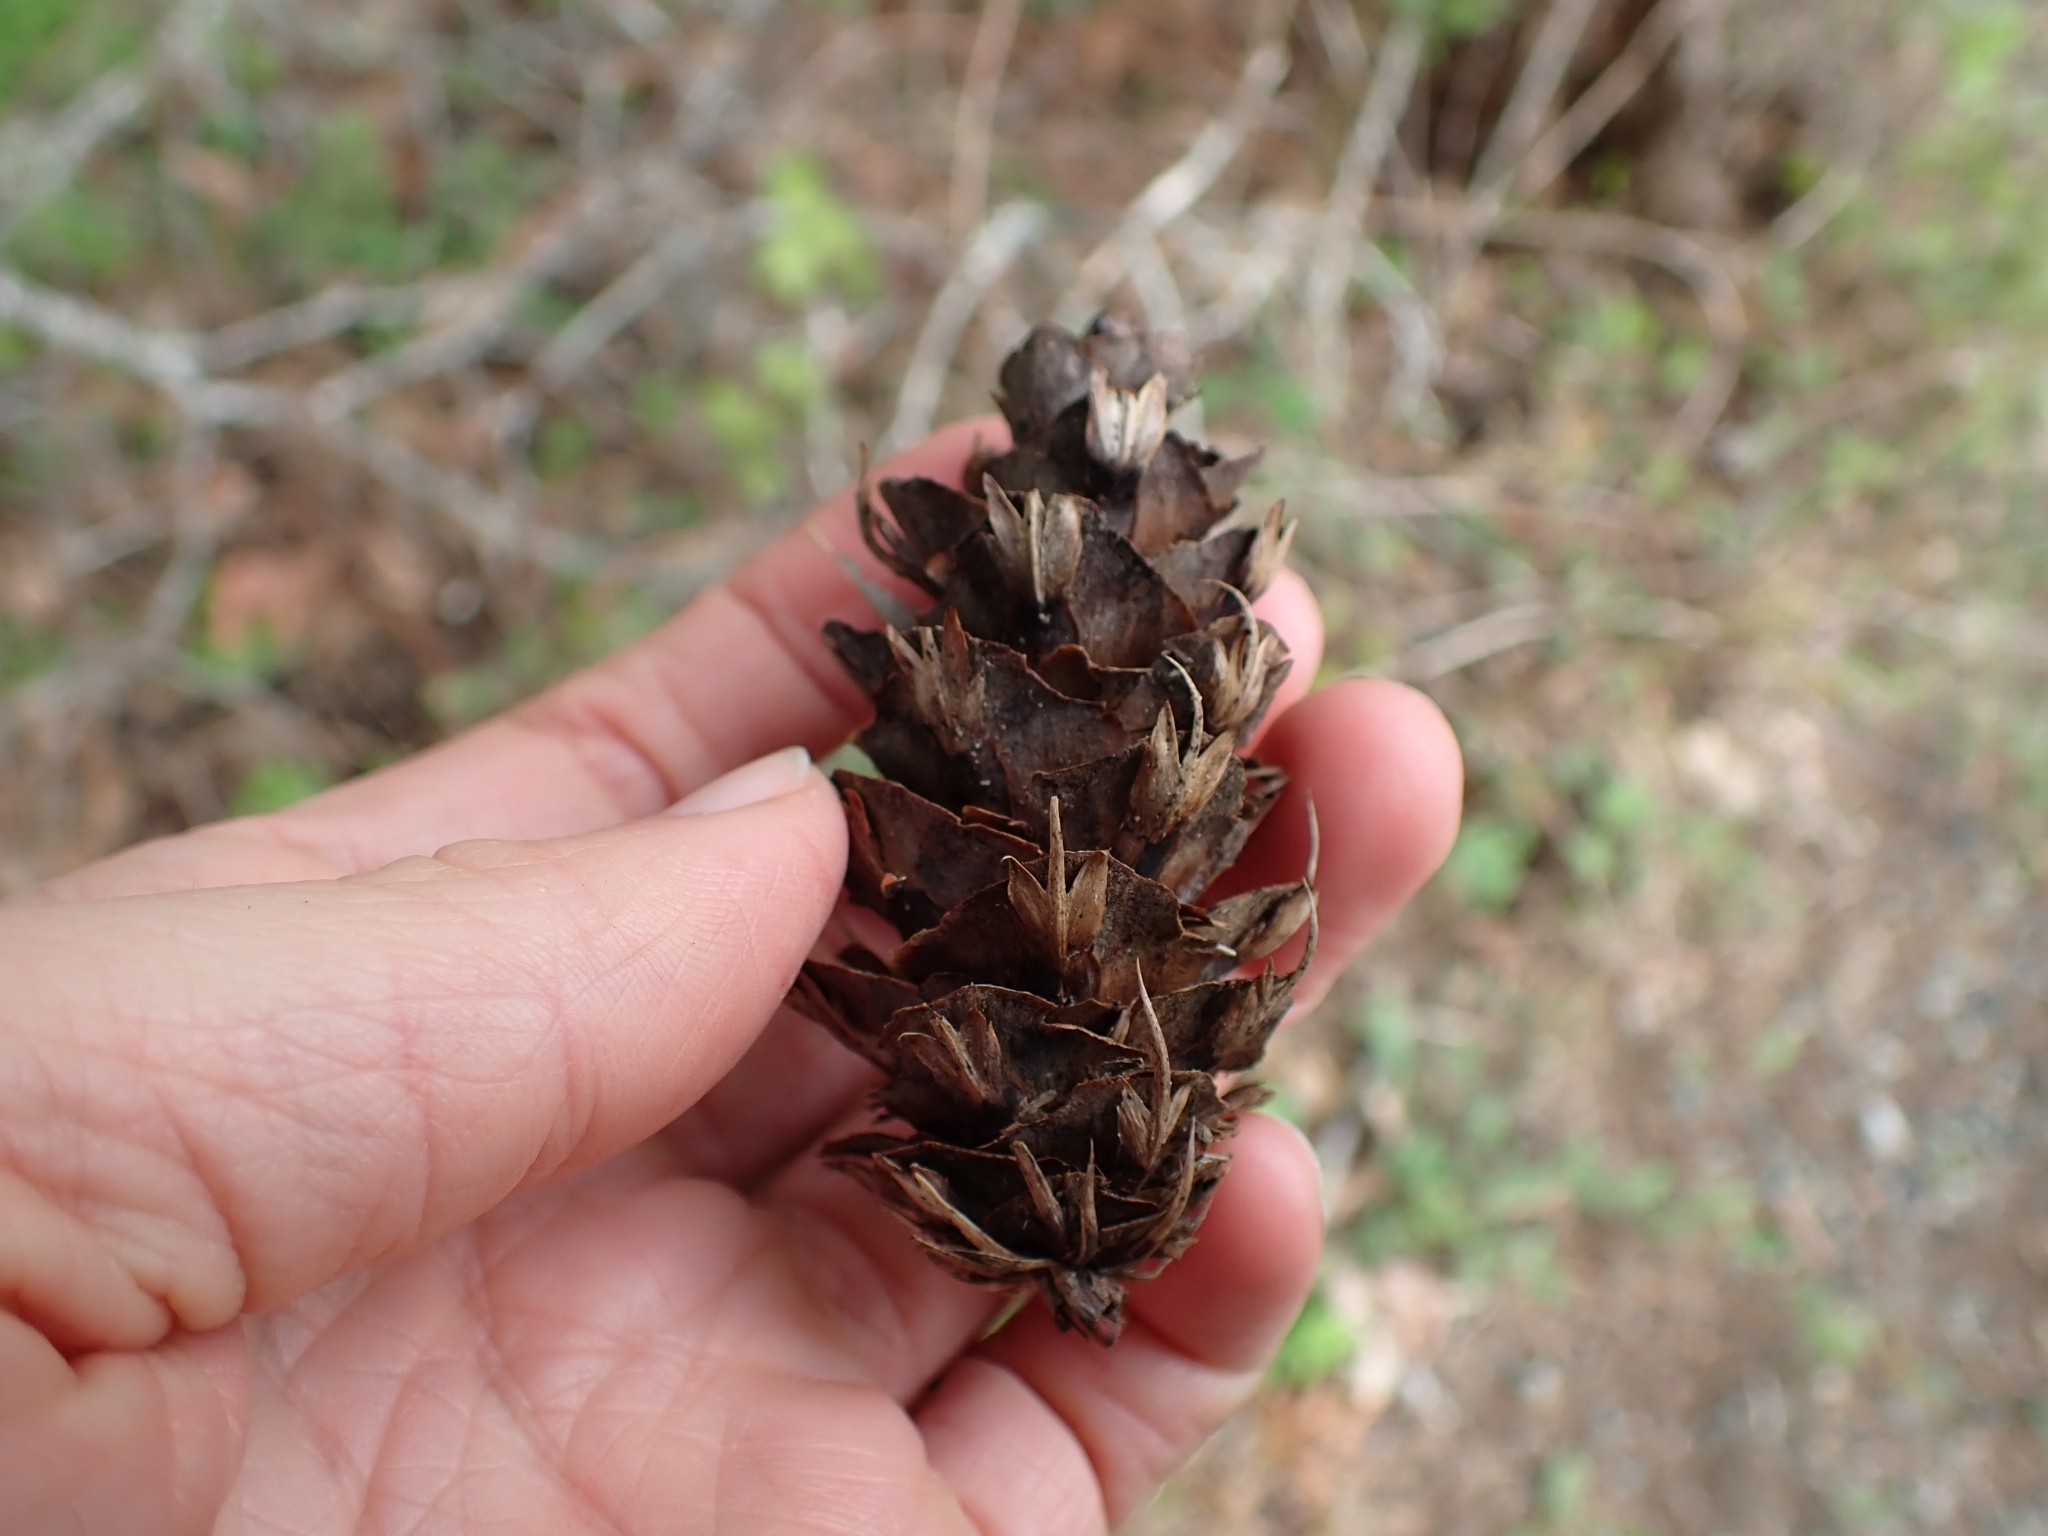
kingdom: Plantae
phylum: Tracheophyta
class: Pinopsida
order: Pinales
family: Pinaceae
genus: Pseudotsuga
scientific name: Pseudotsuga menziesii
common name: Douglas fir
